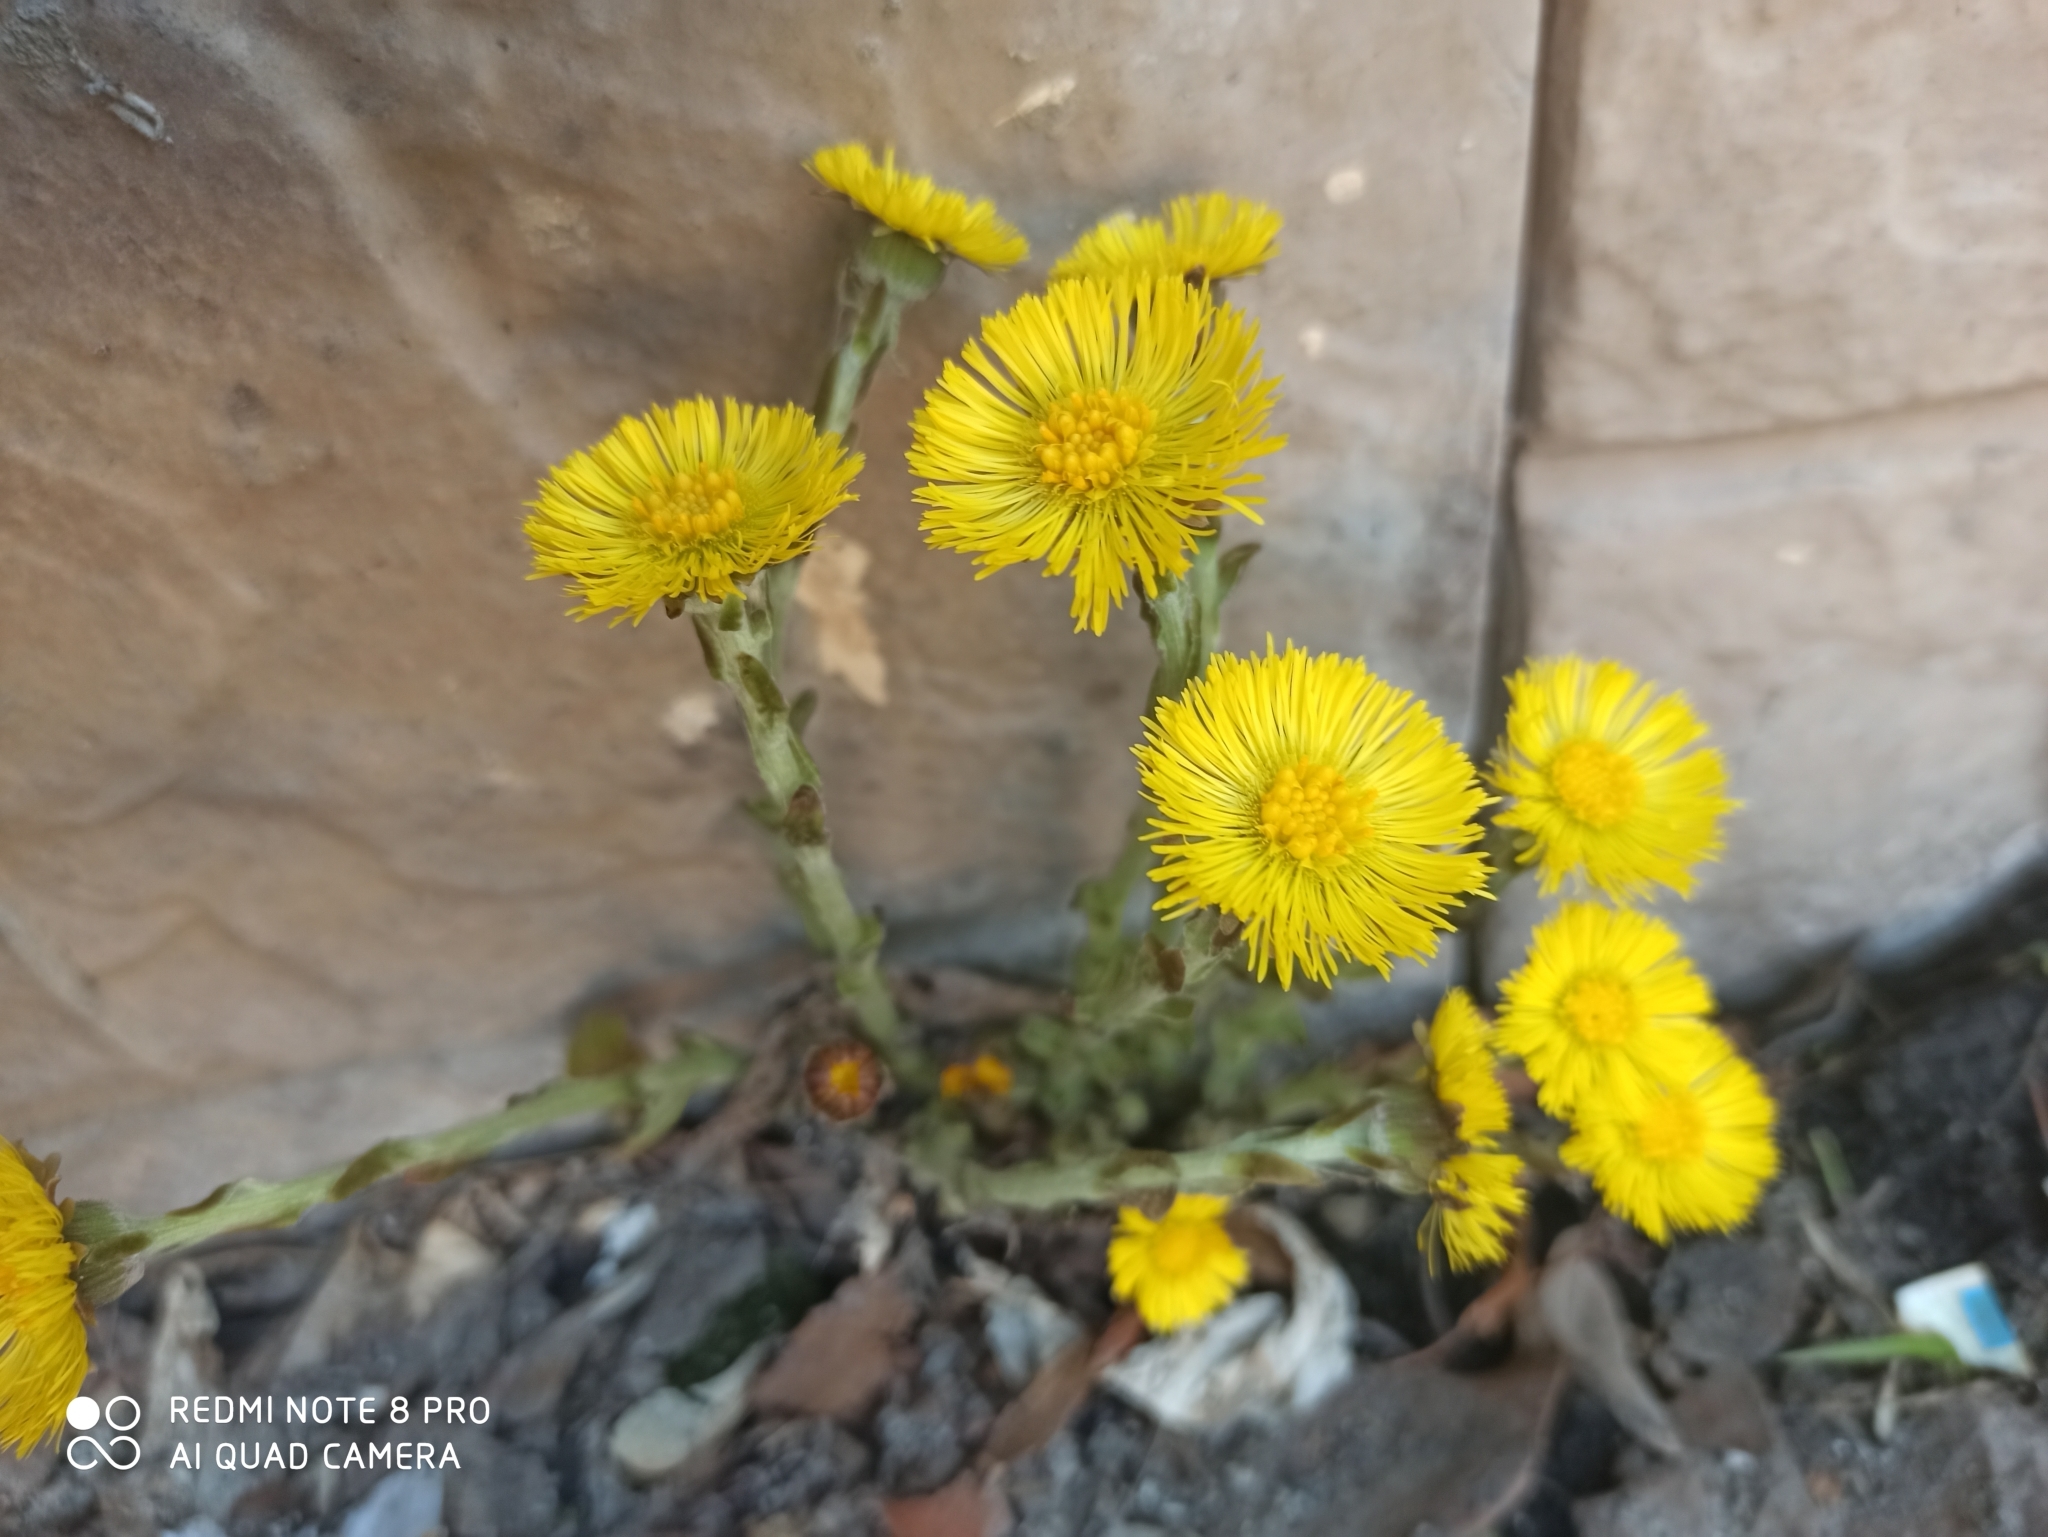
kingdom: Plantae
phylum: Tracheophyta
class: Magnoliopsida
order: Asterales
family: Asteraceae
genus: Tussilago
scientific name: Tussilago farfara
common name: Coltsfoot
